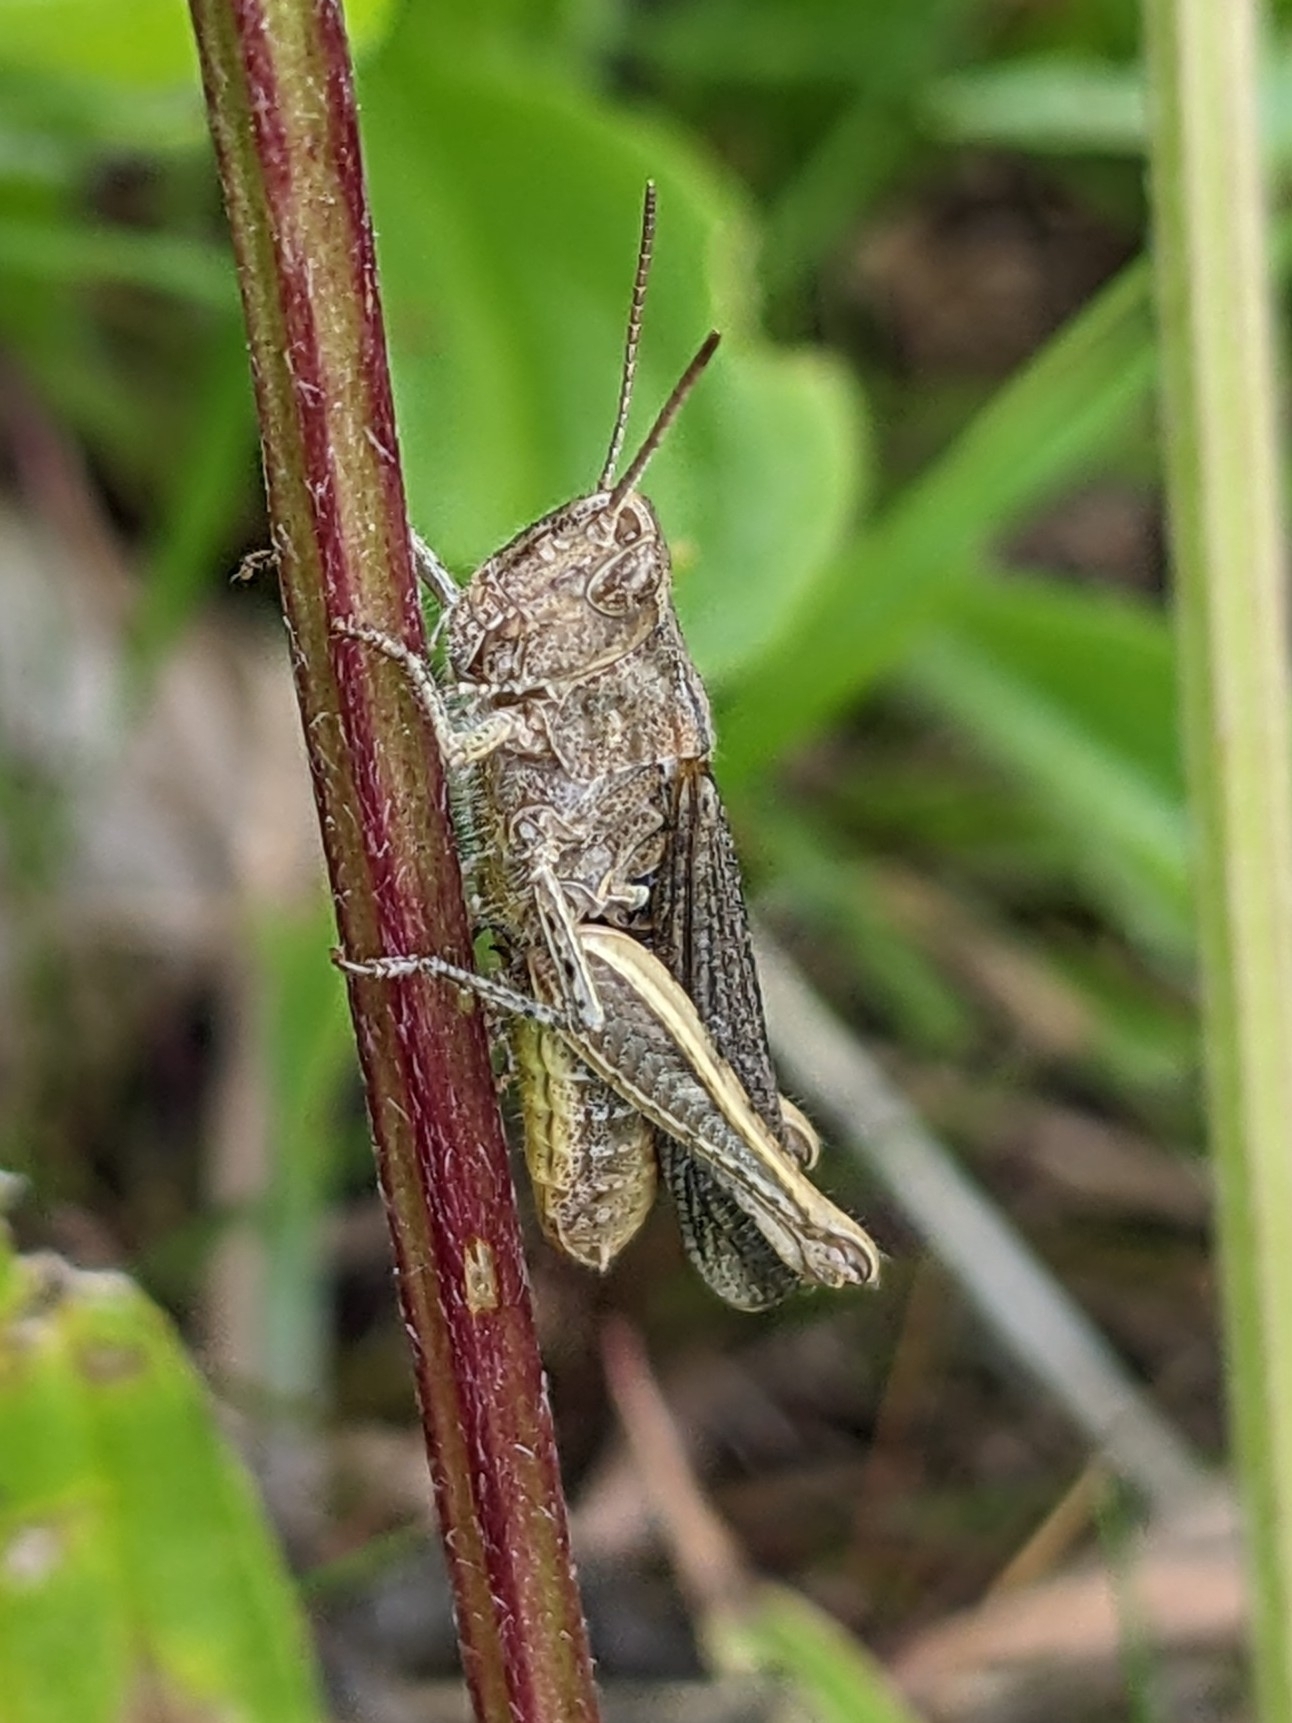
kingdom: Animalia
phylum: Arthropoda
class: Insecta
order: Orthoptera
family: Acrididae
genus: Chorthippus
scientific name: Chorthippus brunneus
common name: Field grasshopper
